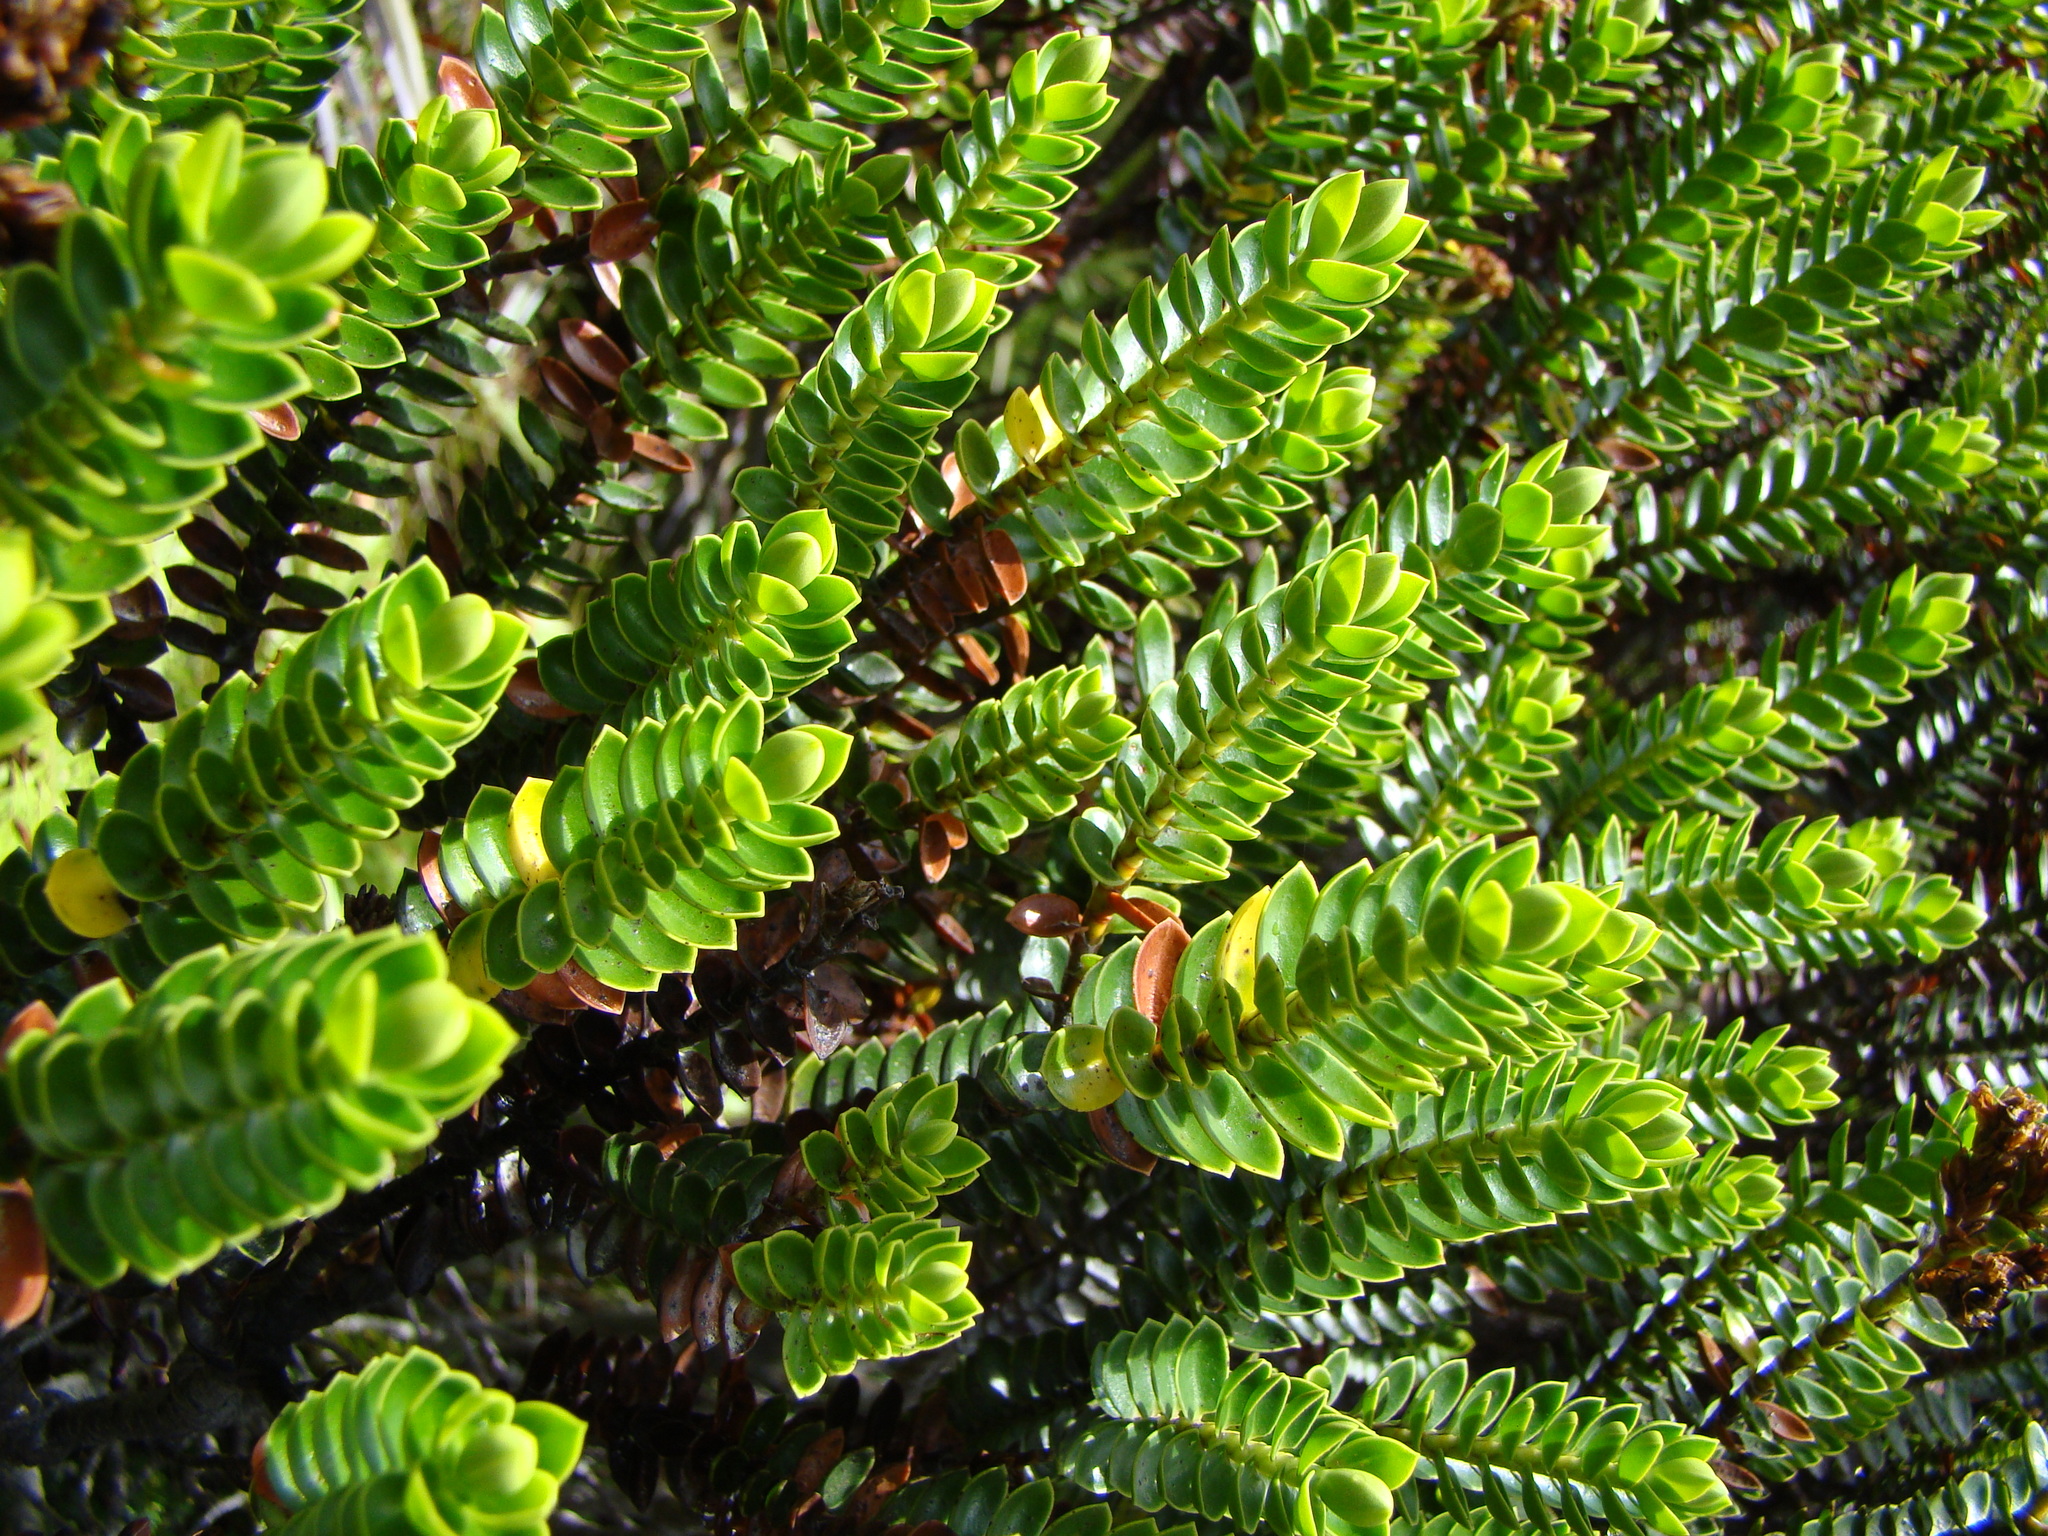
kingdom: Plantae
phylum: Tracheophyta
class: Magnoliopsida
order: Lamiales
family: Plantaginaceae
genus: Veronica
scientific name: Veronica odora
